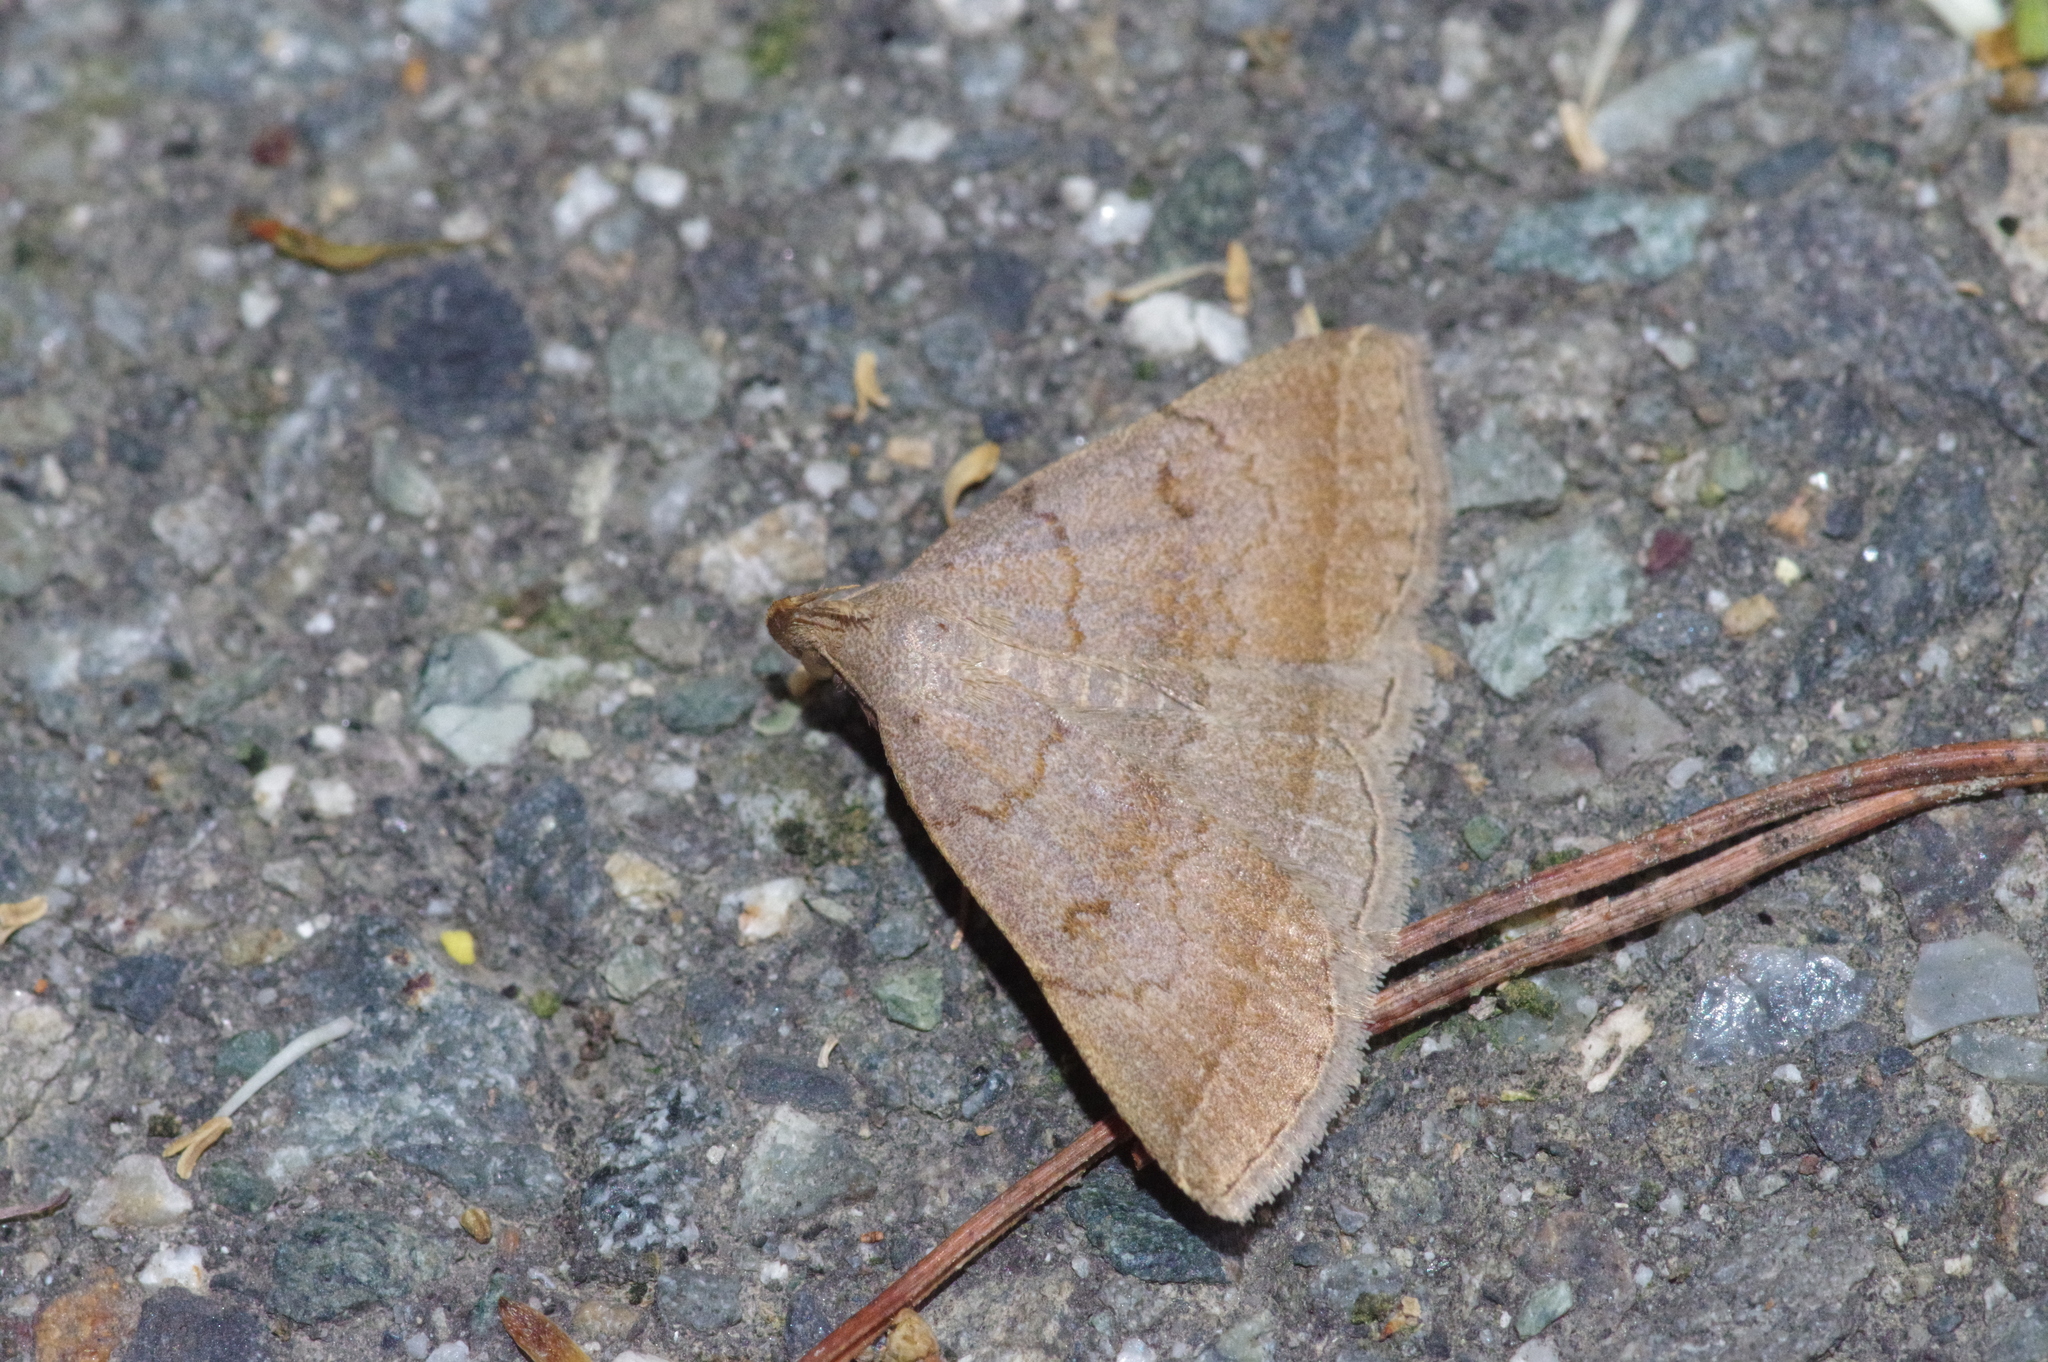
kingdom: Animalia
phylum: Arthropoda
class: Insecta
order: Lepidoptera
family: Erebidae
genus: Zanclognatha
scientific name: Zanclognatha lunalis
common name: Jubilee fan-foot
